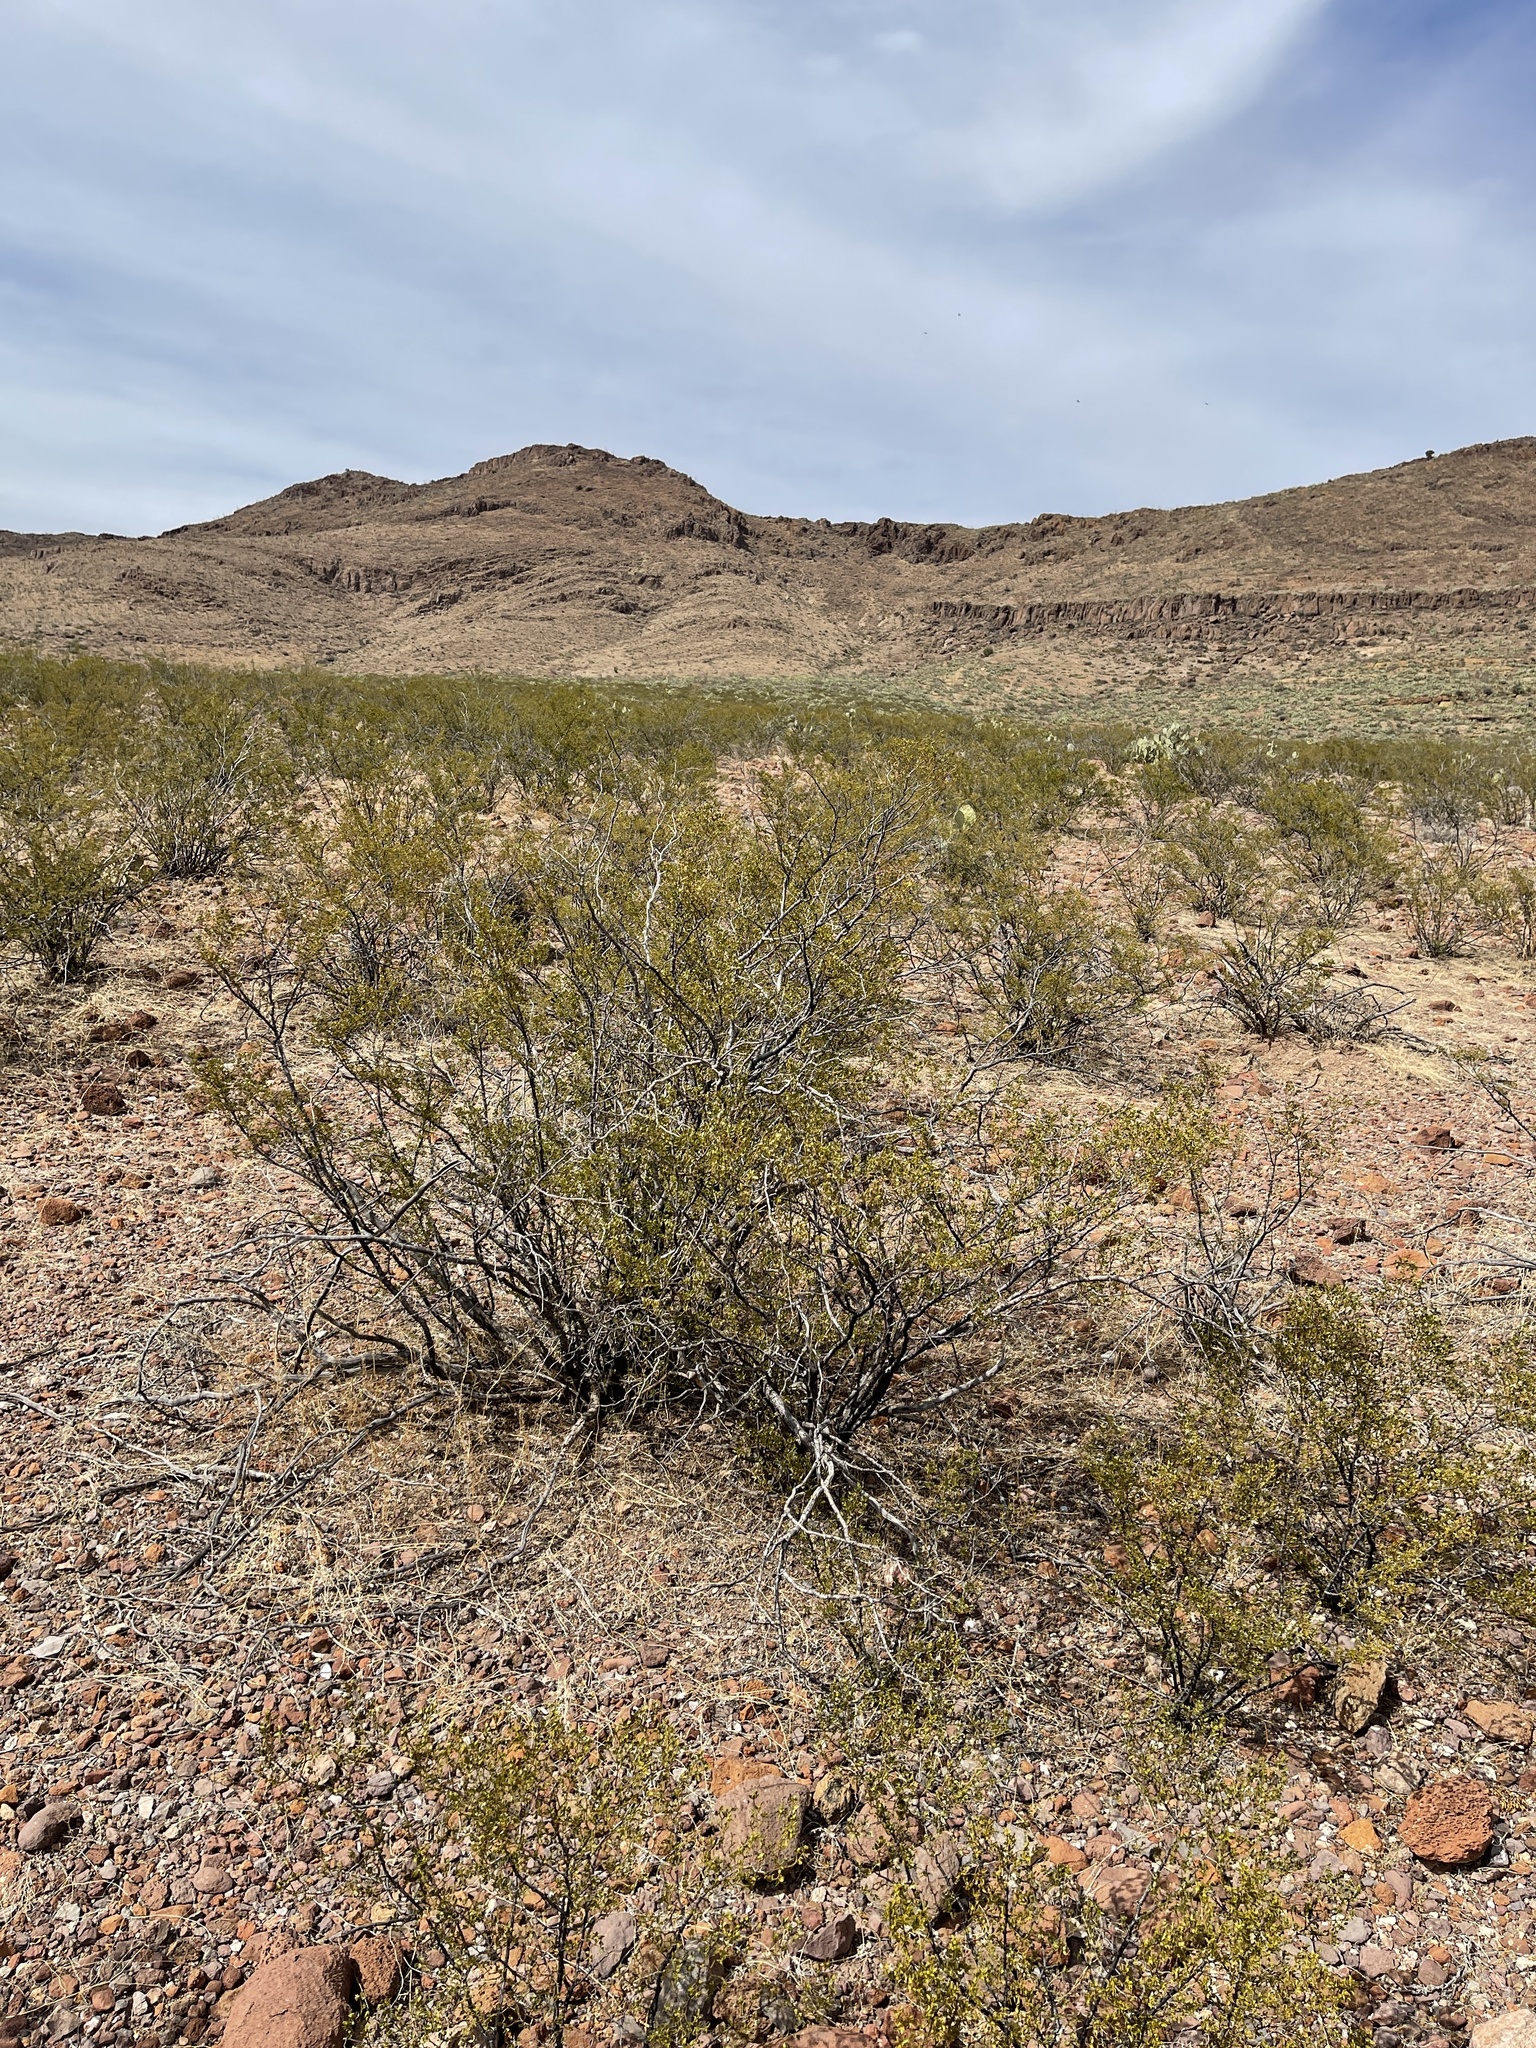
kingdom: Plantae
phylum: Tracheophyta
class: Magnoliopsida
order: Zygophyllales
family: Zygophyllaceae
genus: Larrea
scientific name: Larrea tridentata
